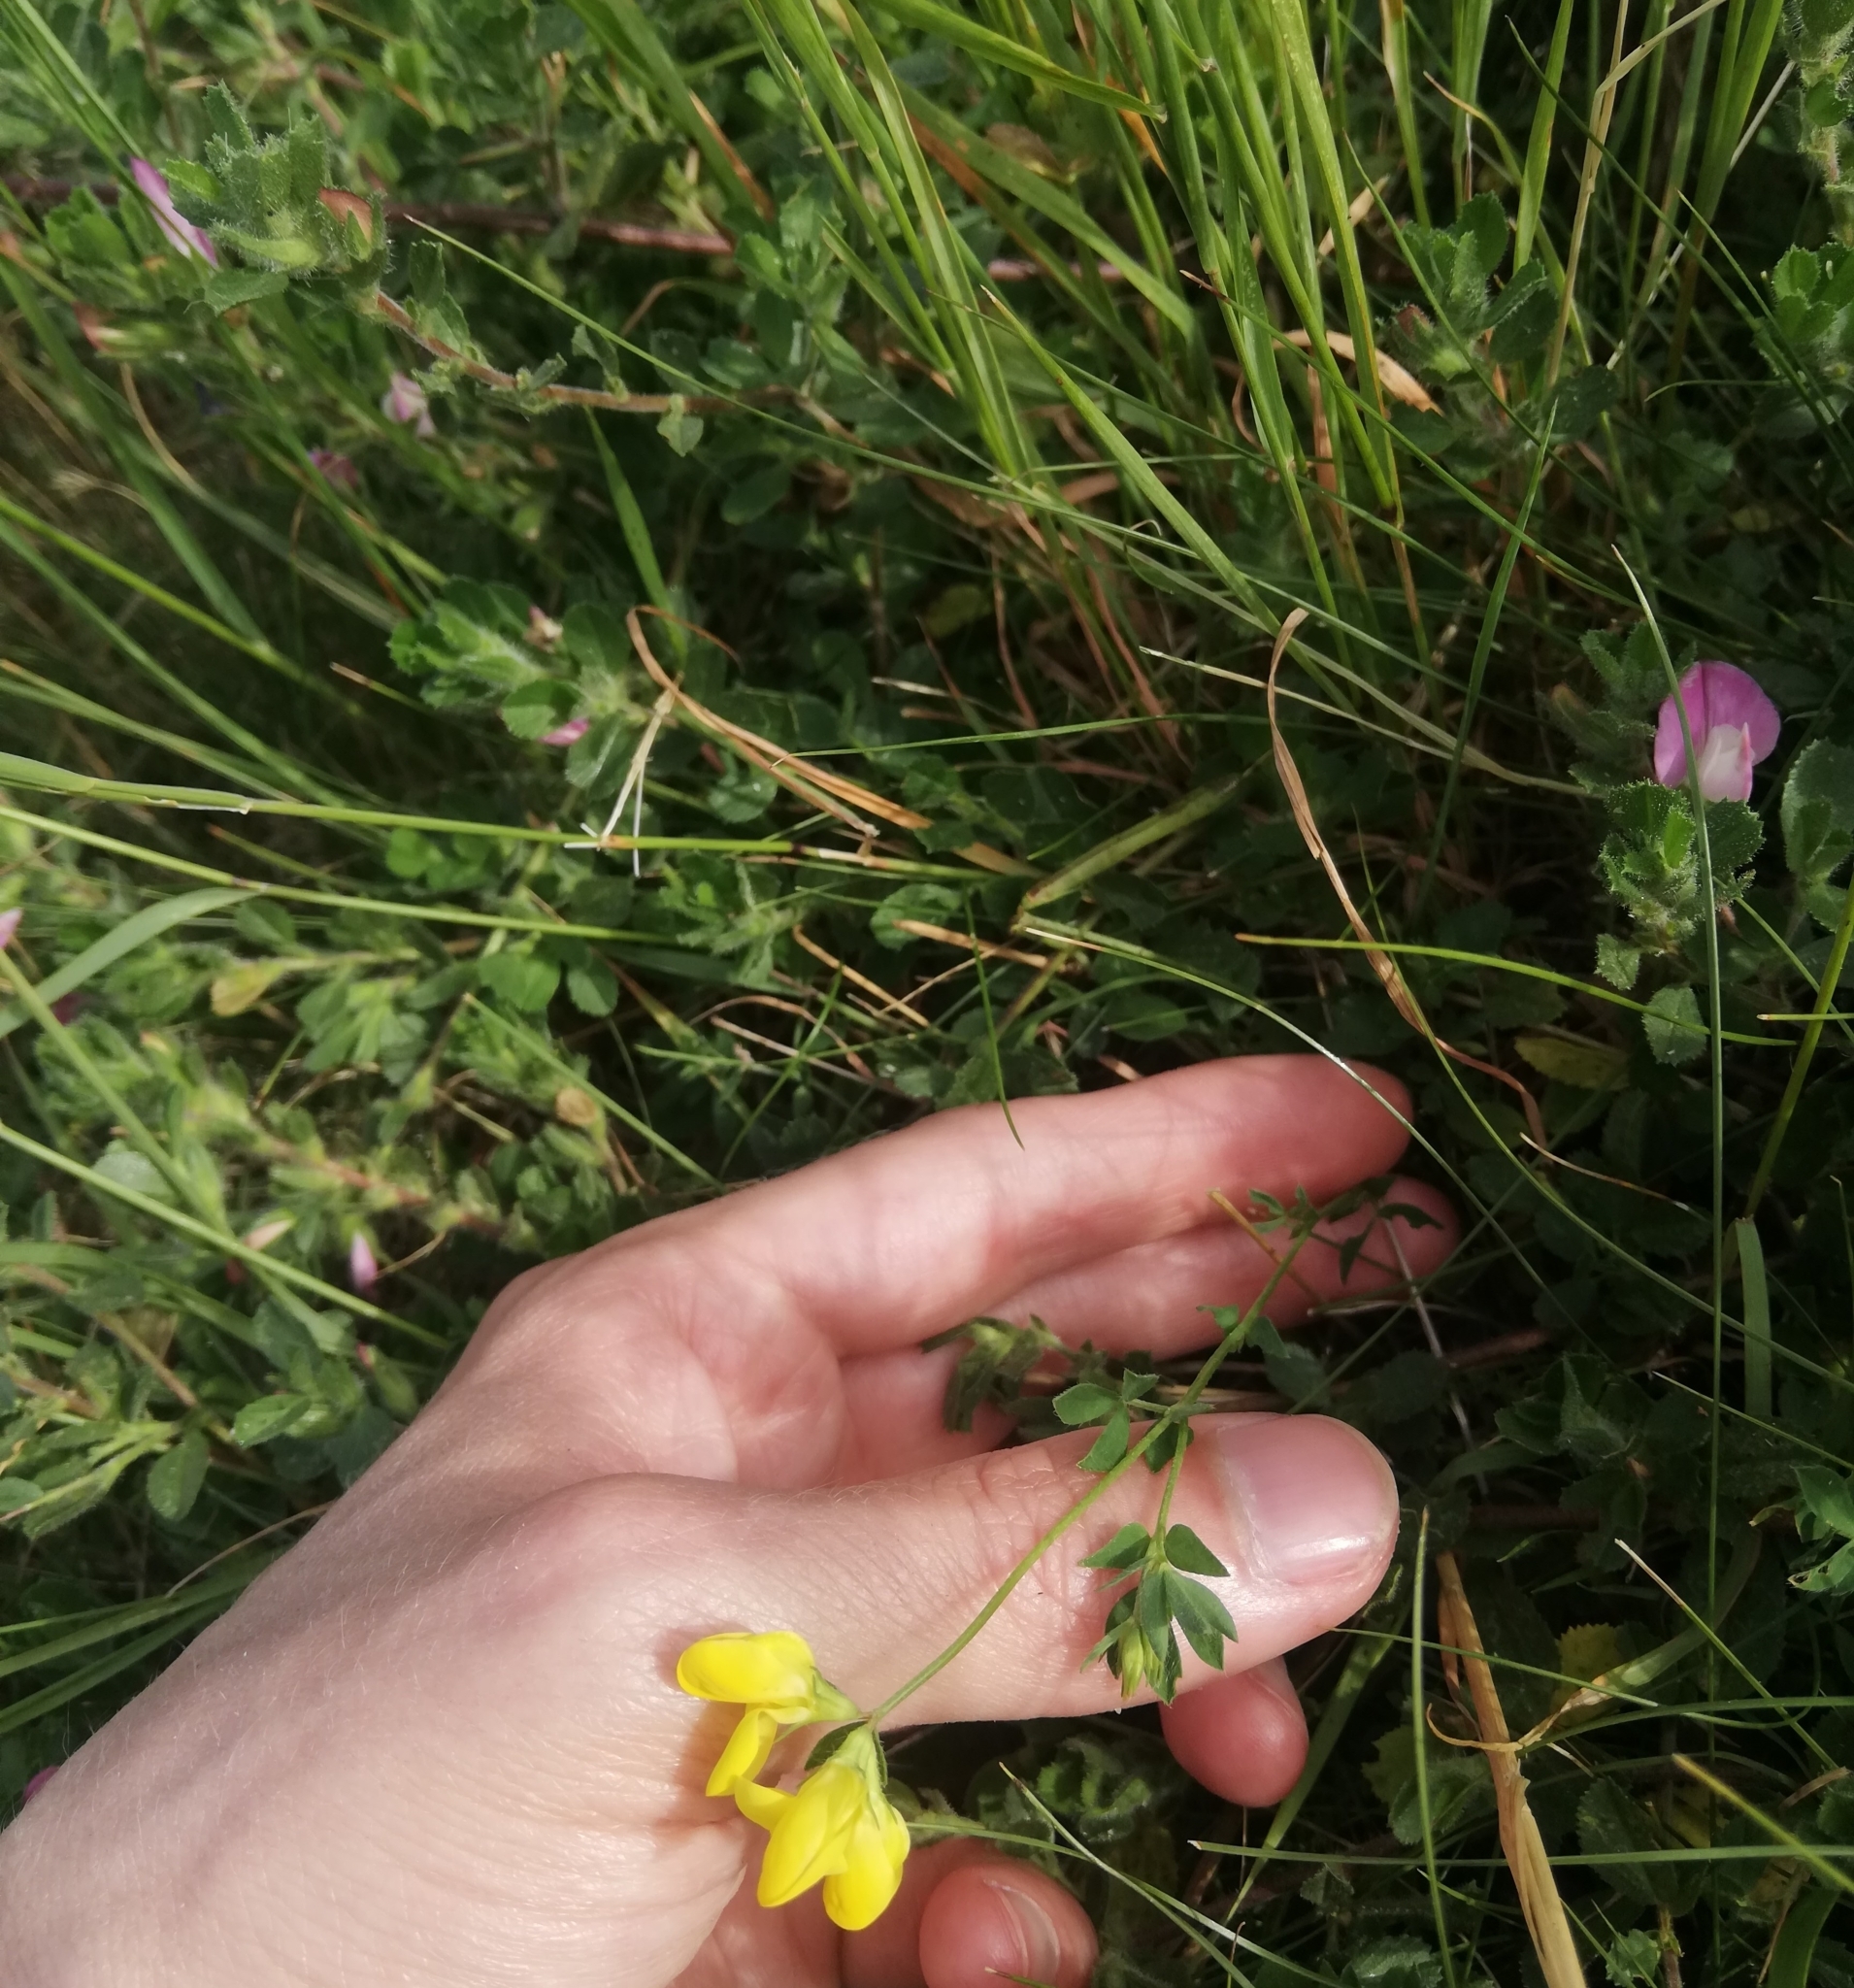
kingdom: Plantae
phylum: Tracheophyta
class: Magnoliopsida
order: Fabales
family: Fabaceae
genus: Lotus
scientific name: Lotus corniculatus
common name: Common bird's-foot-trefoil
